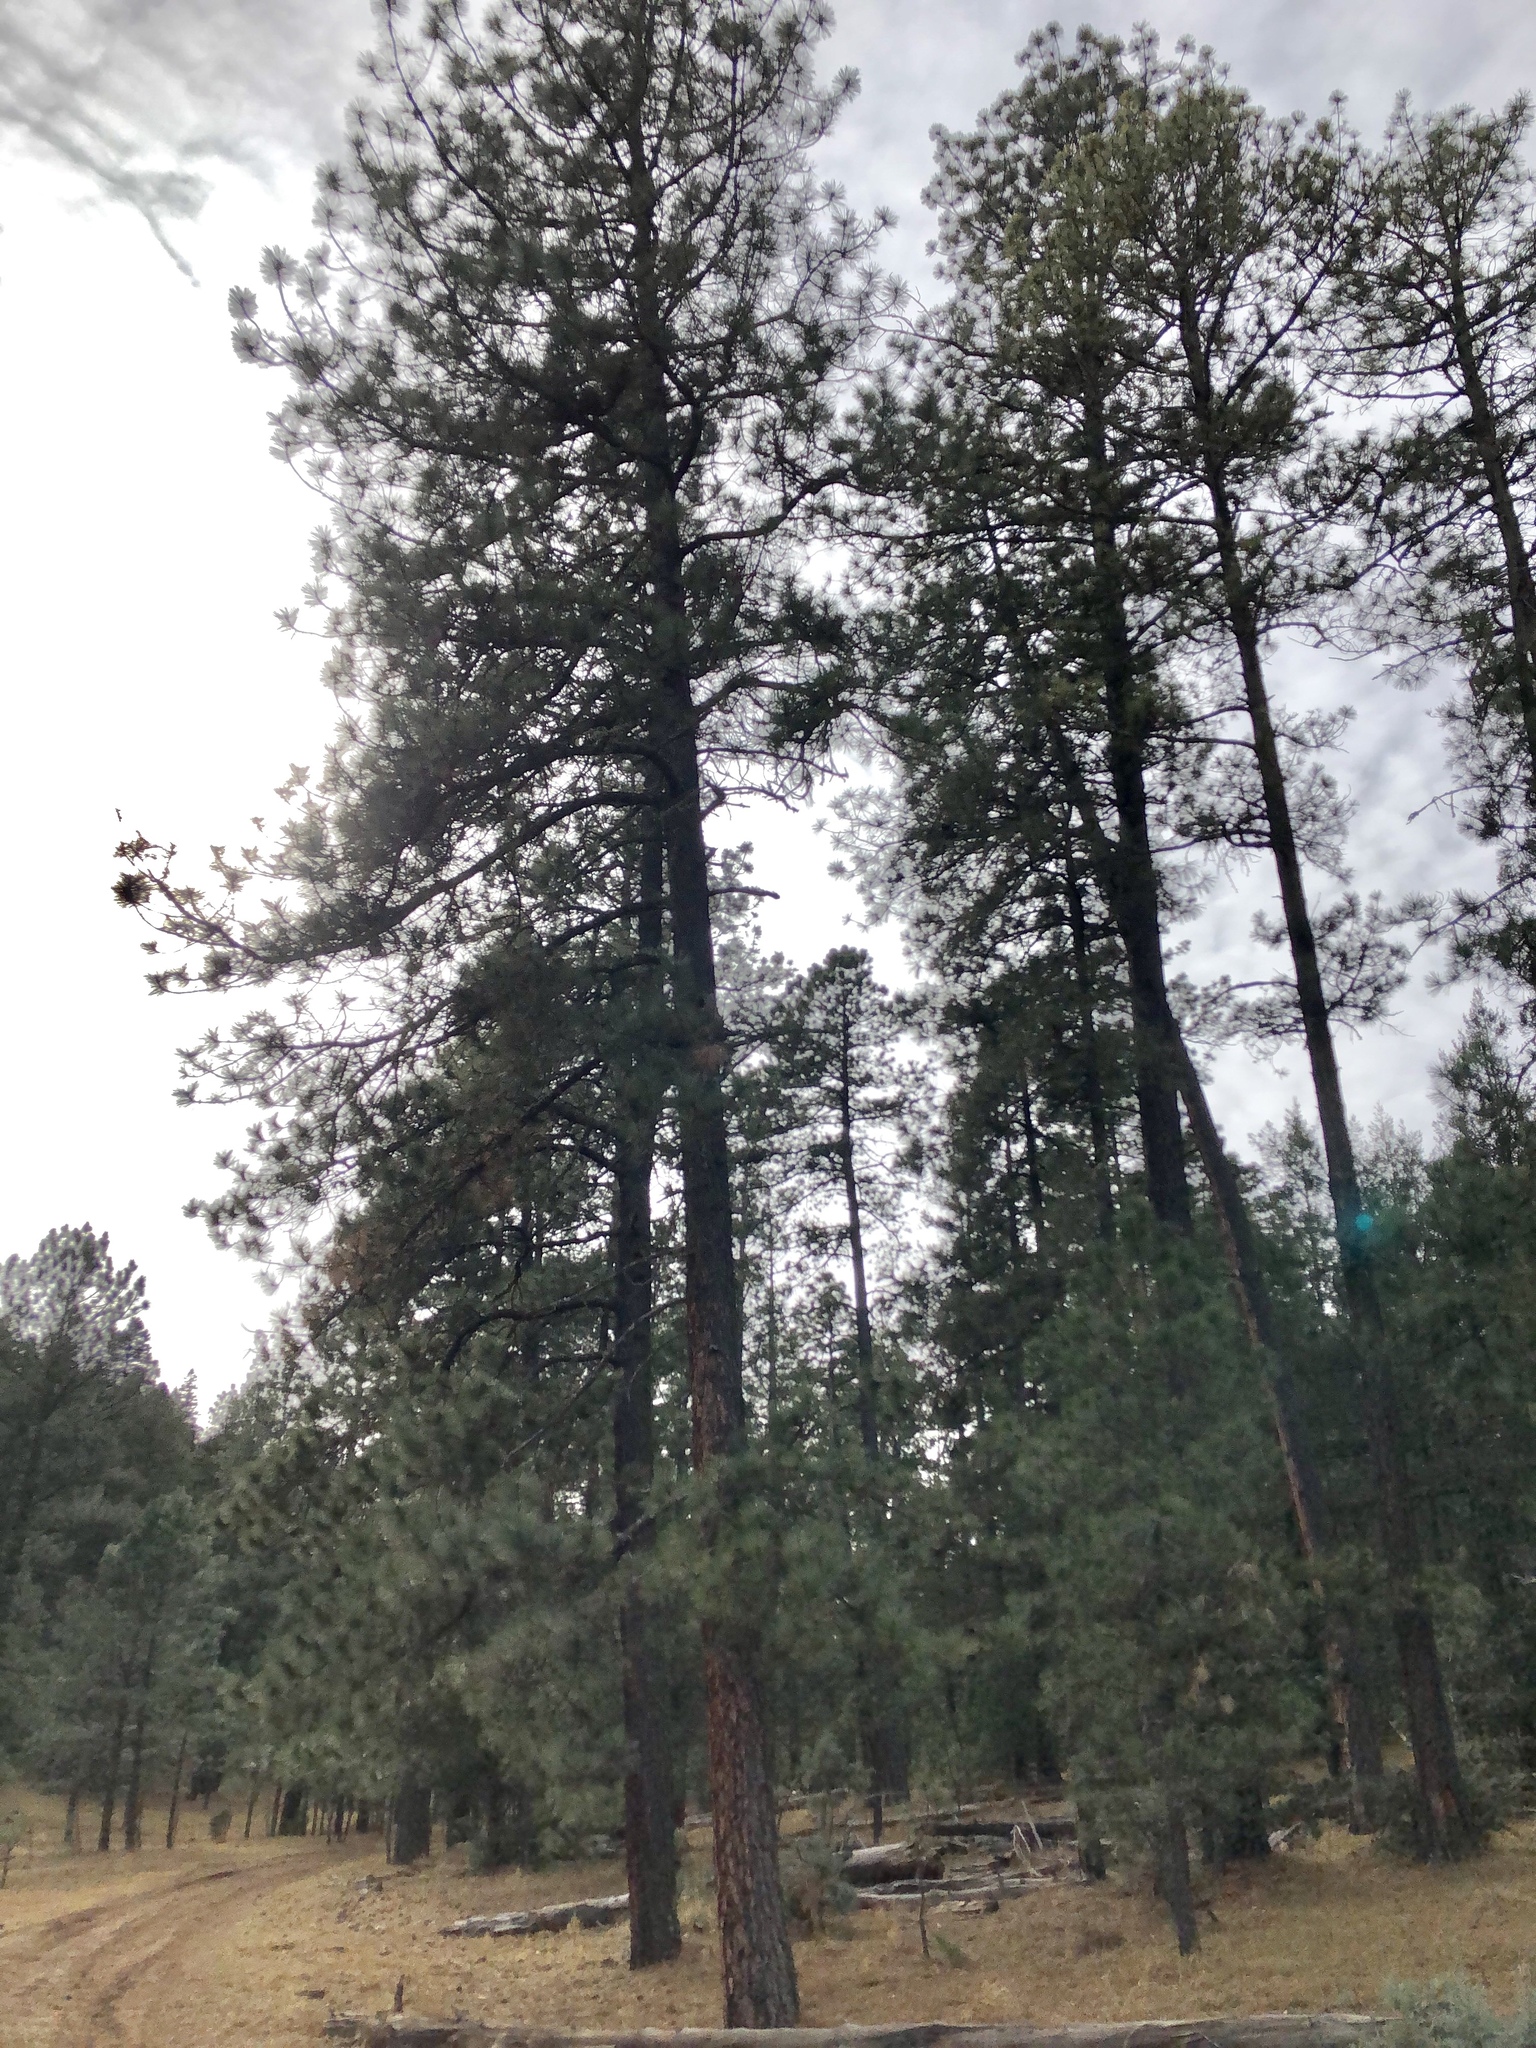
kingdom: Plantae
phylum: Tracheophyta
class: Pinopsida
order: Pinales
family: Pinaceae
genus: Pinus
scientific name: Pinus ponderosa
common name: Western yellow-pine
